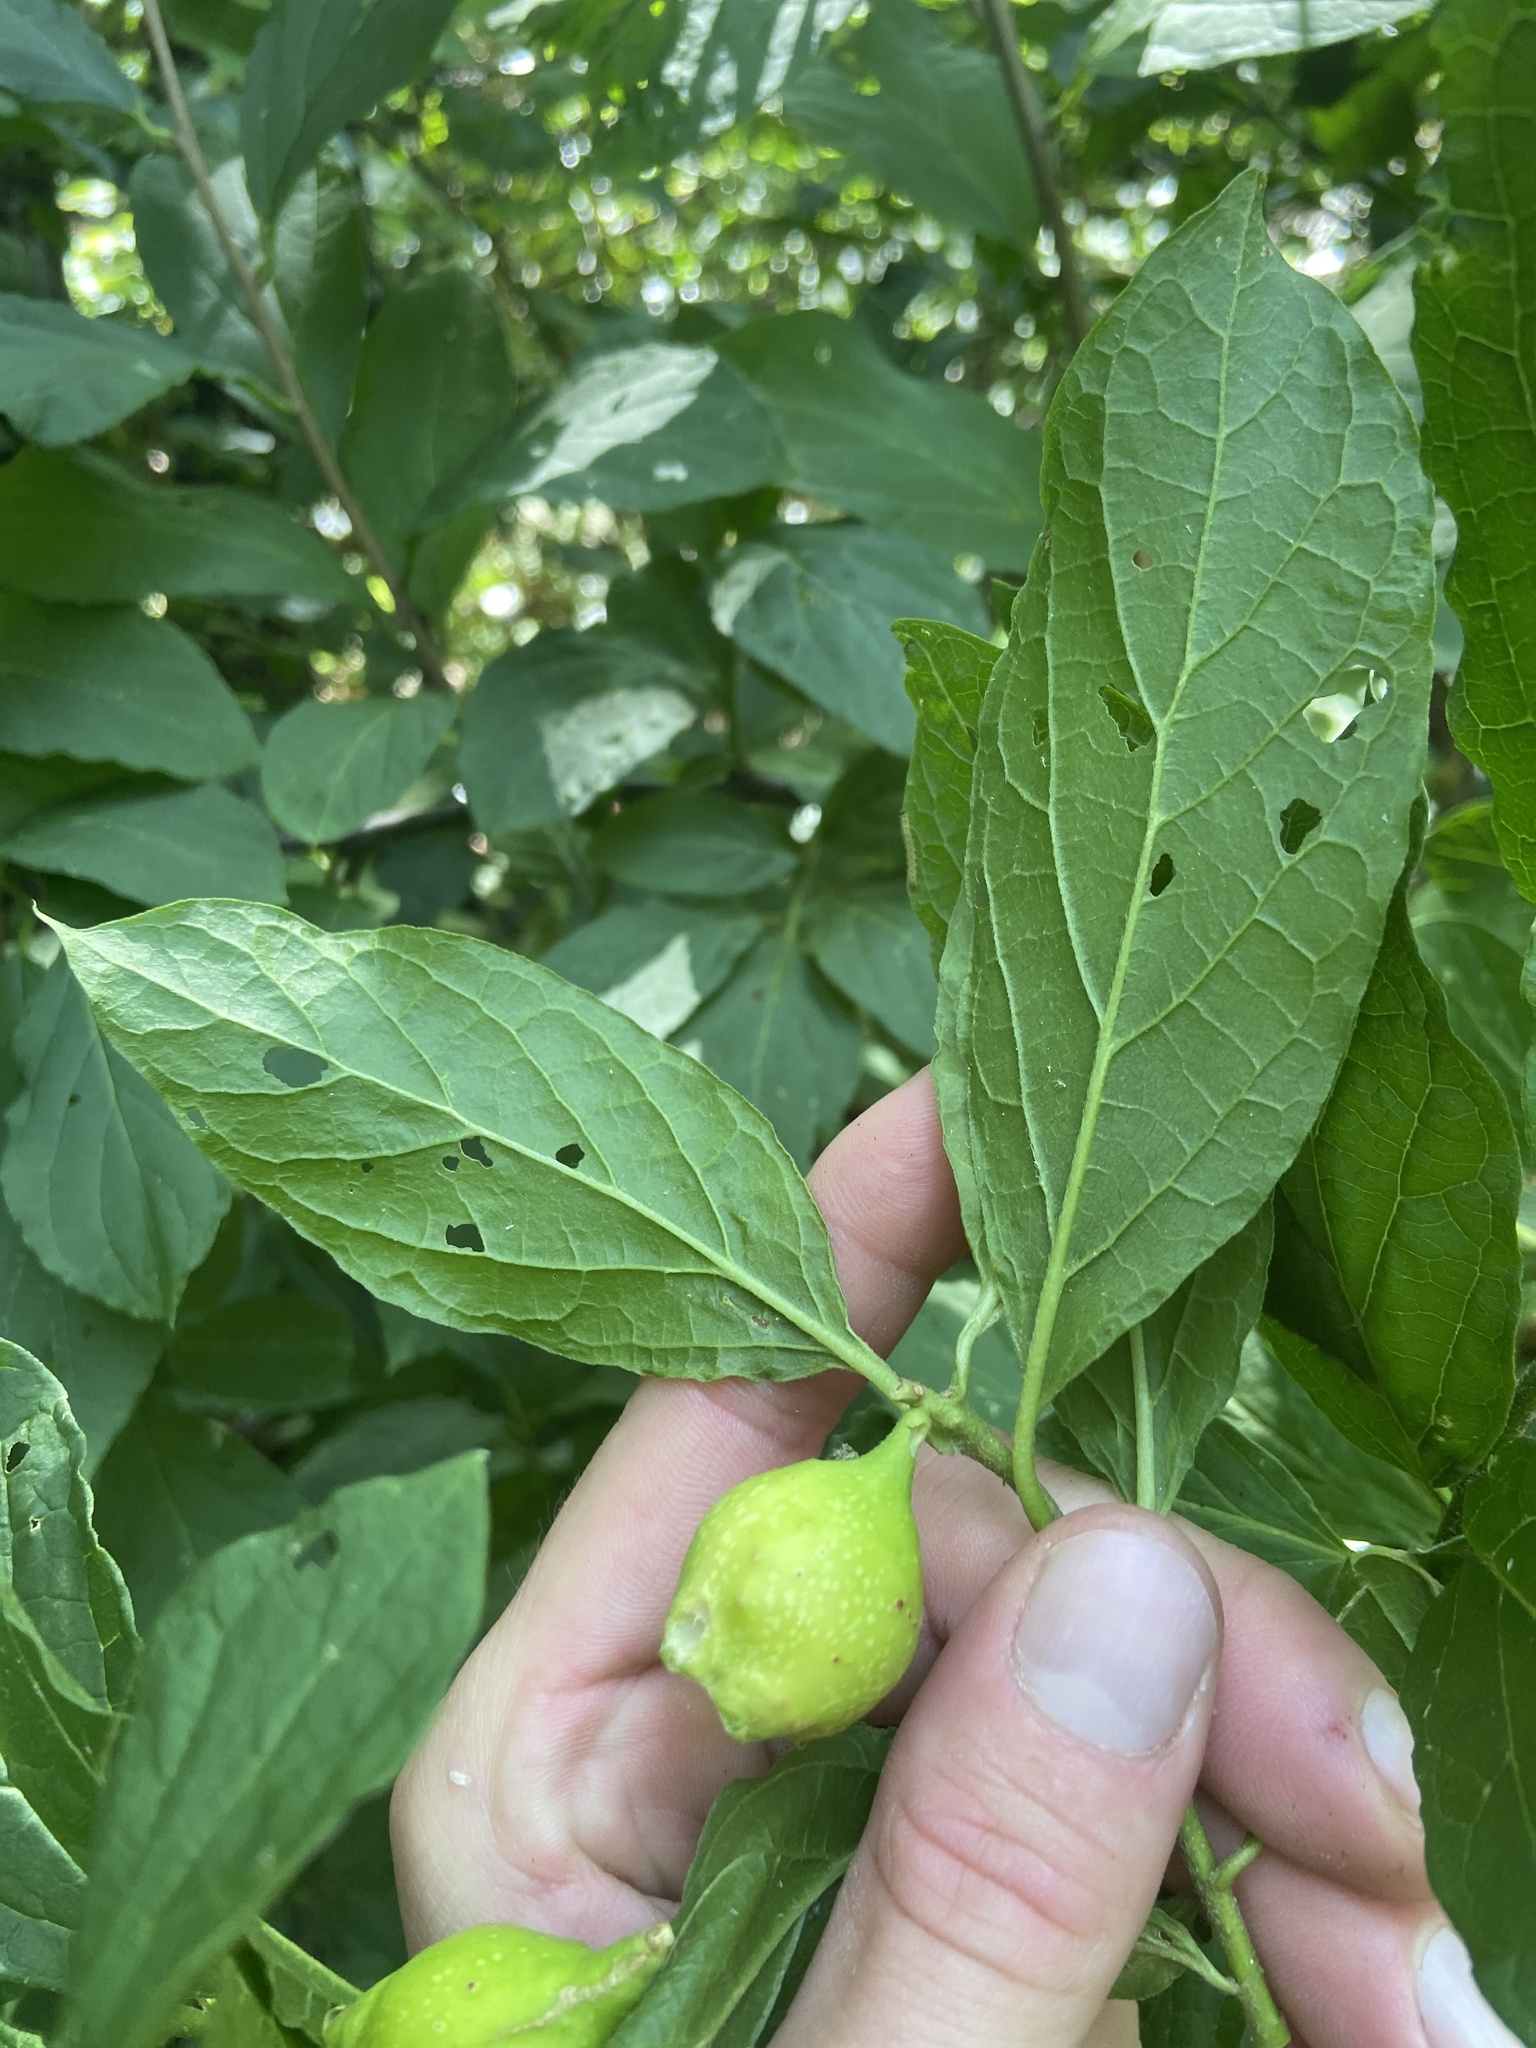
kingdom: Plantae
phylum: Tracheophyta
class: Magnoliopsida
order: Santalales
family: Cervantesiaceae
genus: Pyrularia
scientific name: Pyrularia pubera
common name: Oilnut
